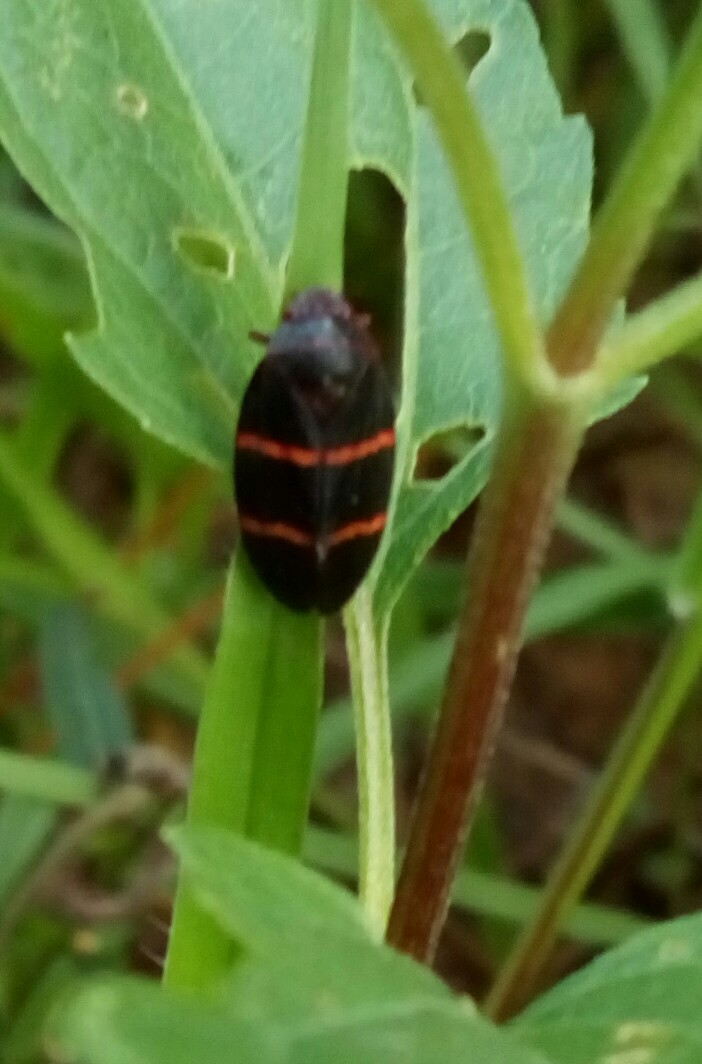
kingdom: Animalia
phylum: Arthropoda
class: Insecta
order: Hemiptera
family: Cercopidae
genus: Prosapia
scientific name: Prosapia bicincta
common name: Twolined spittlebug
